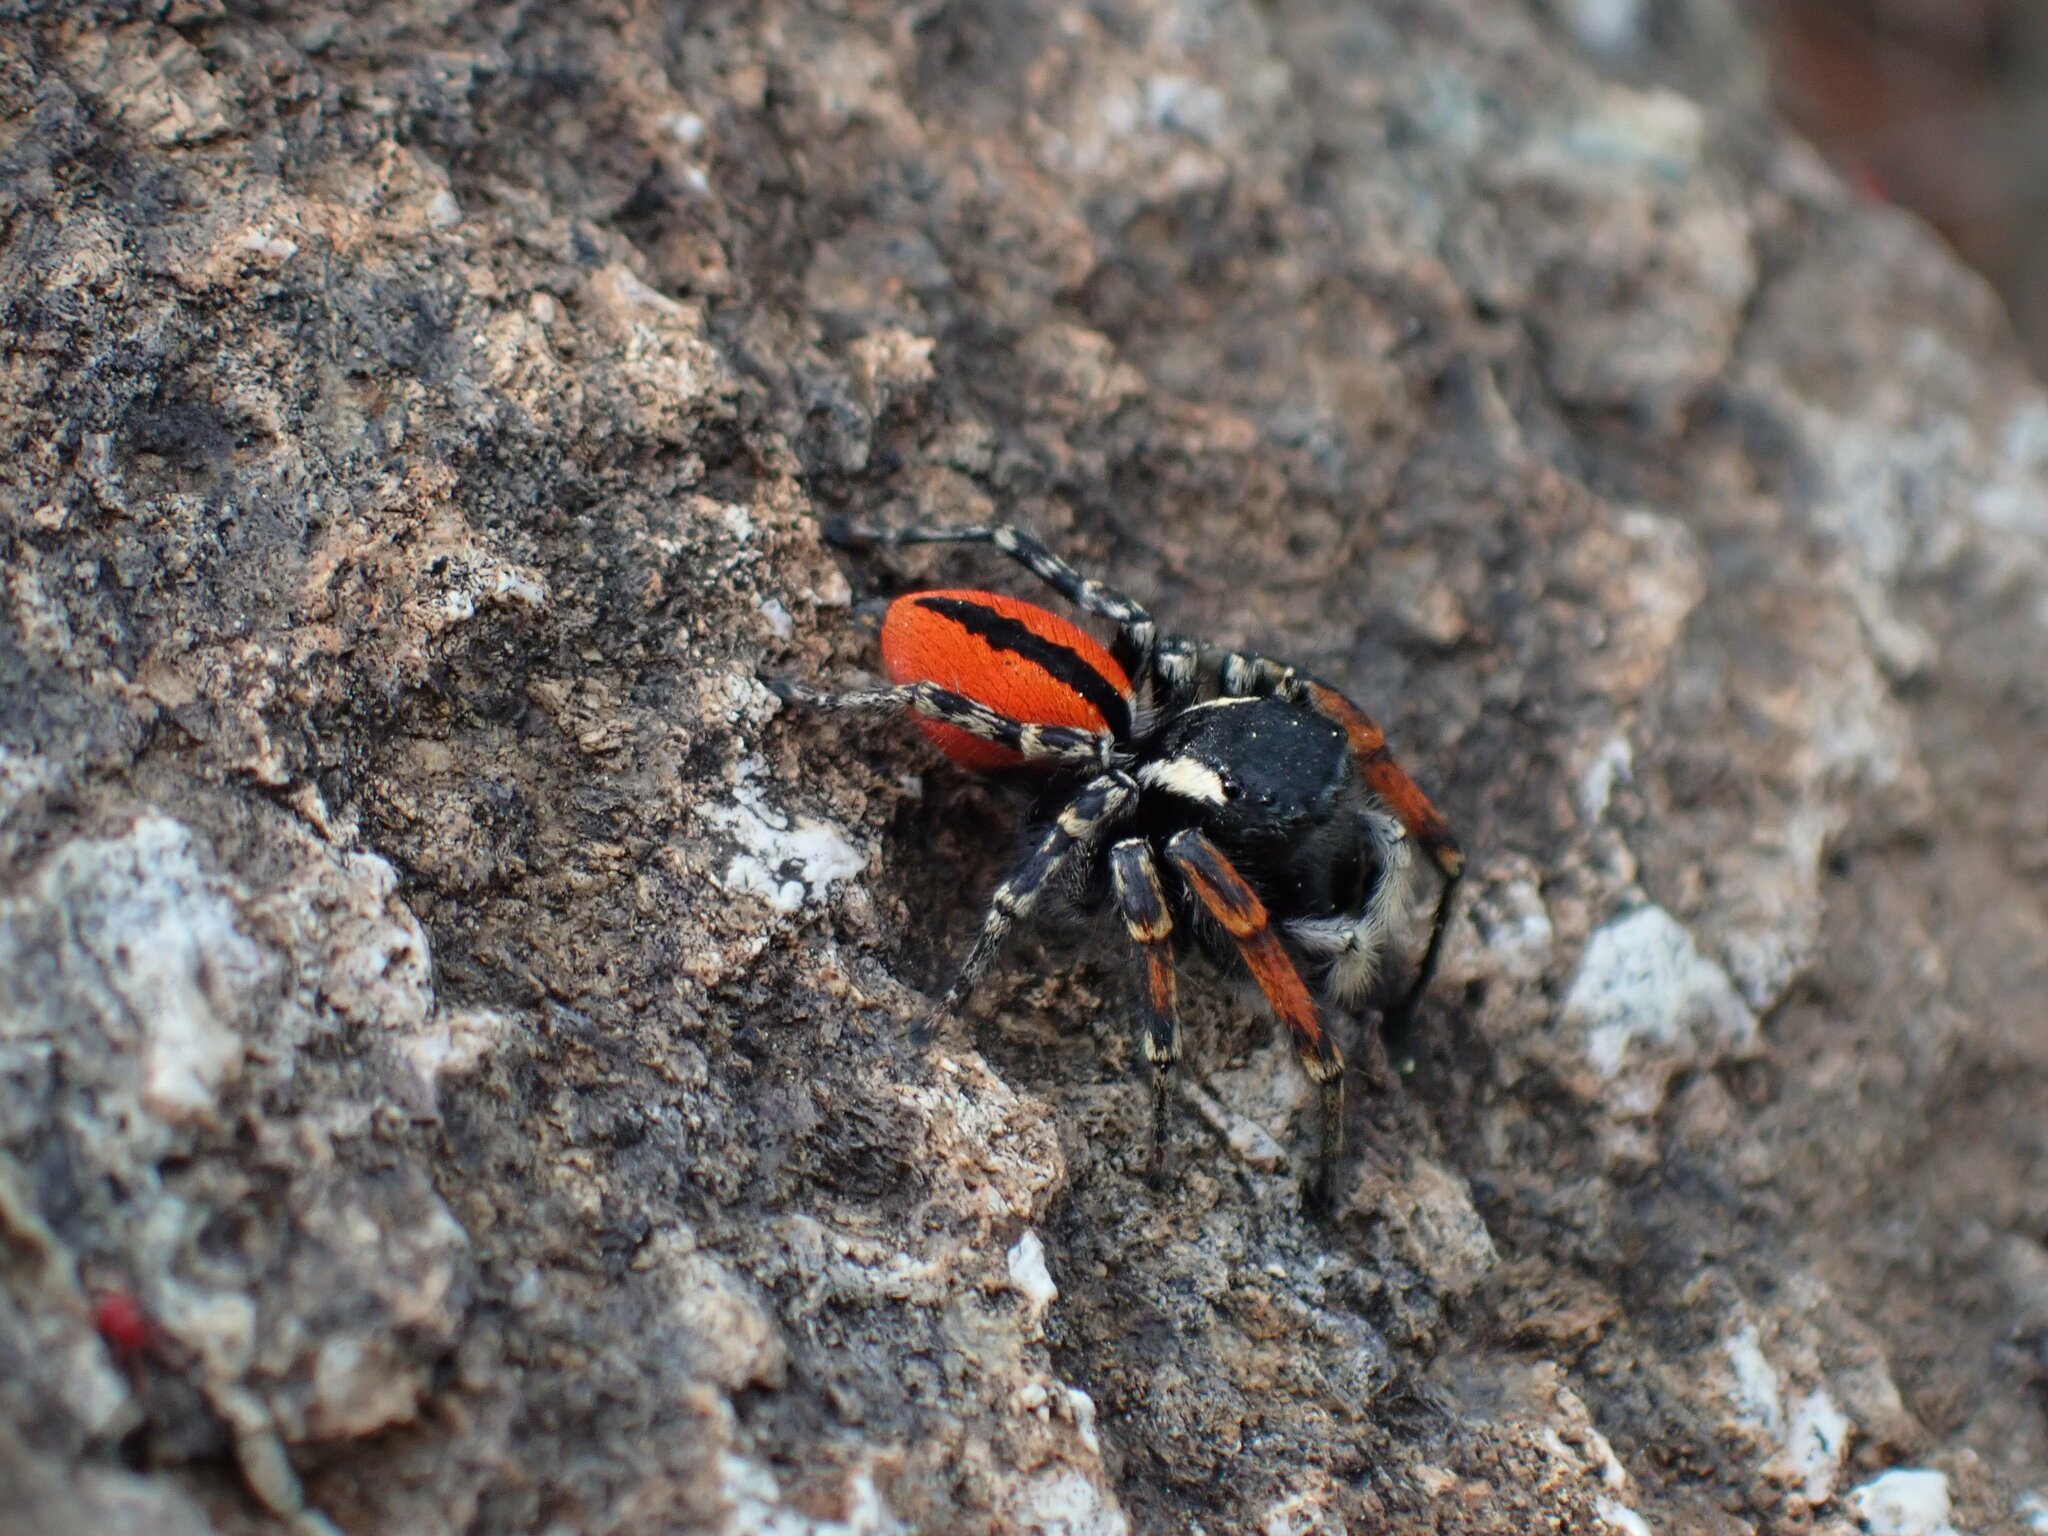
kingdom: Animalia
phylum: Arthropoda
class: Arachnida
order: Araneae
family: Salticidae
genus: Philaeus
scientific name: Philaeus chrysops
